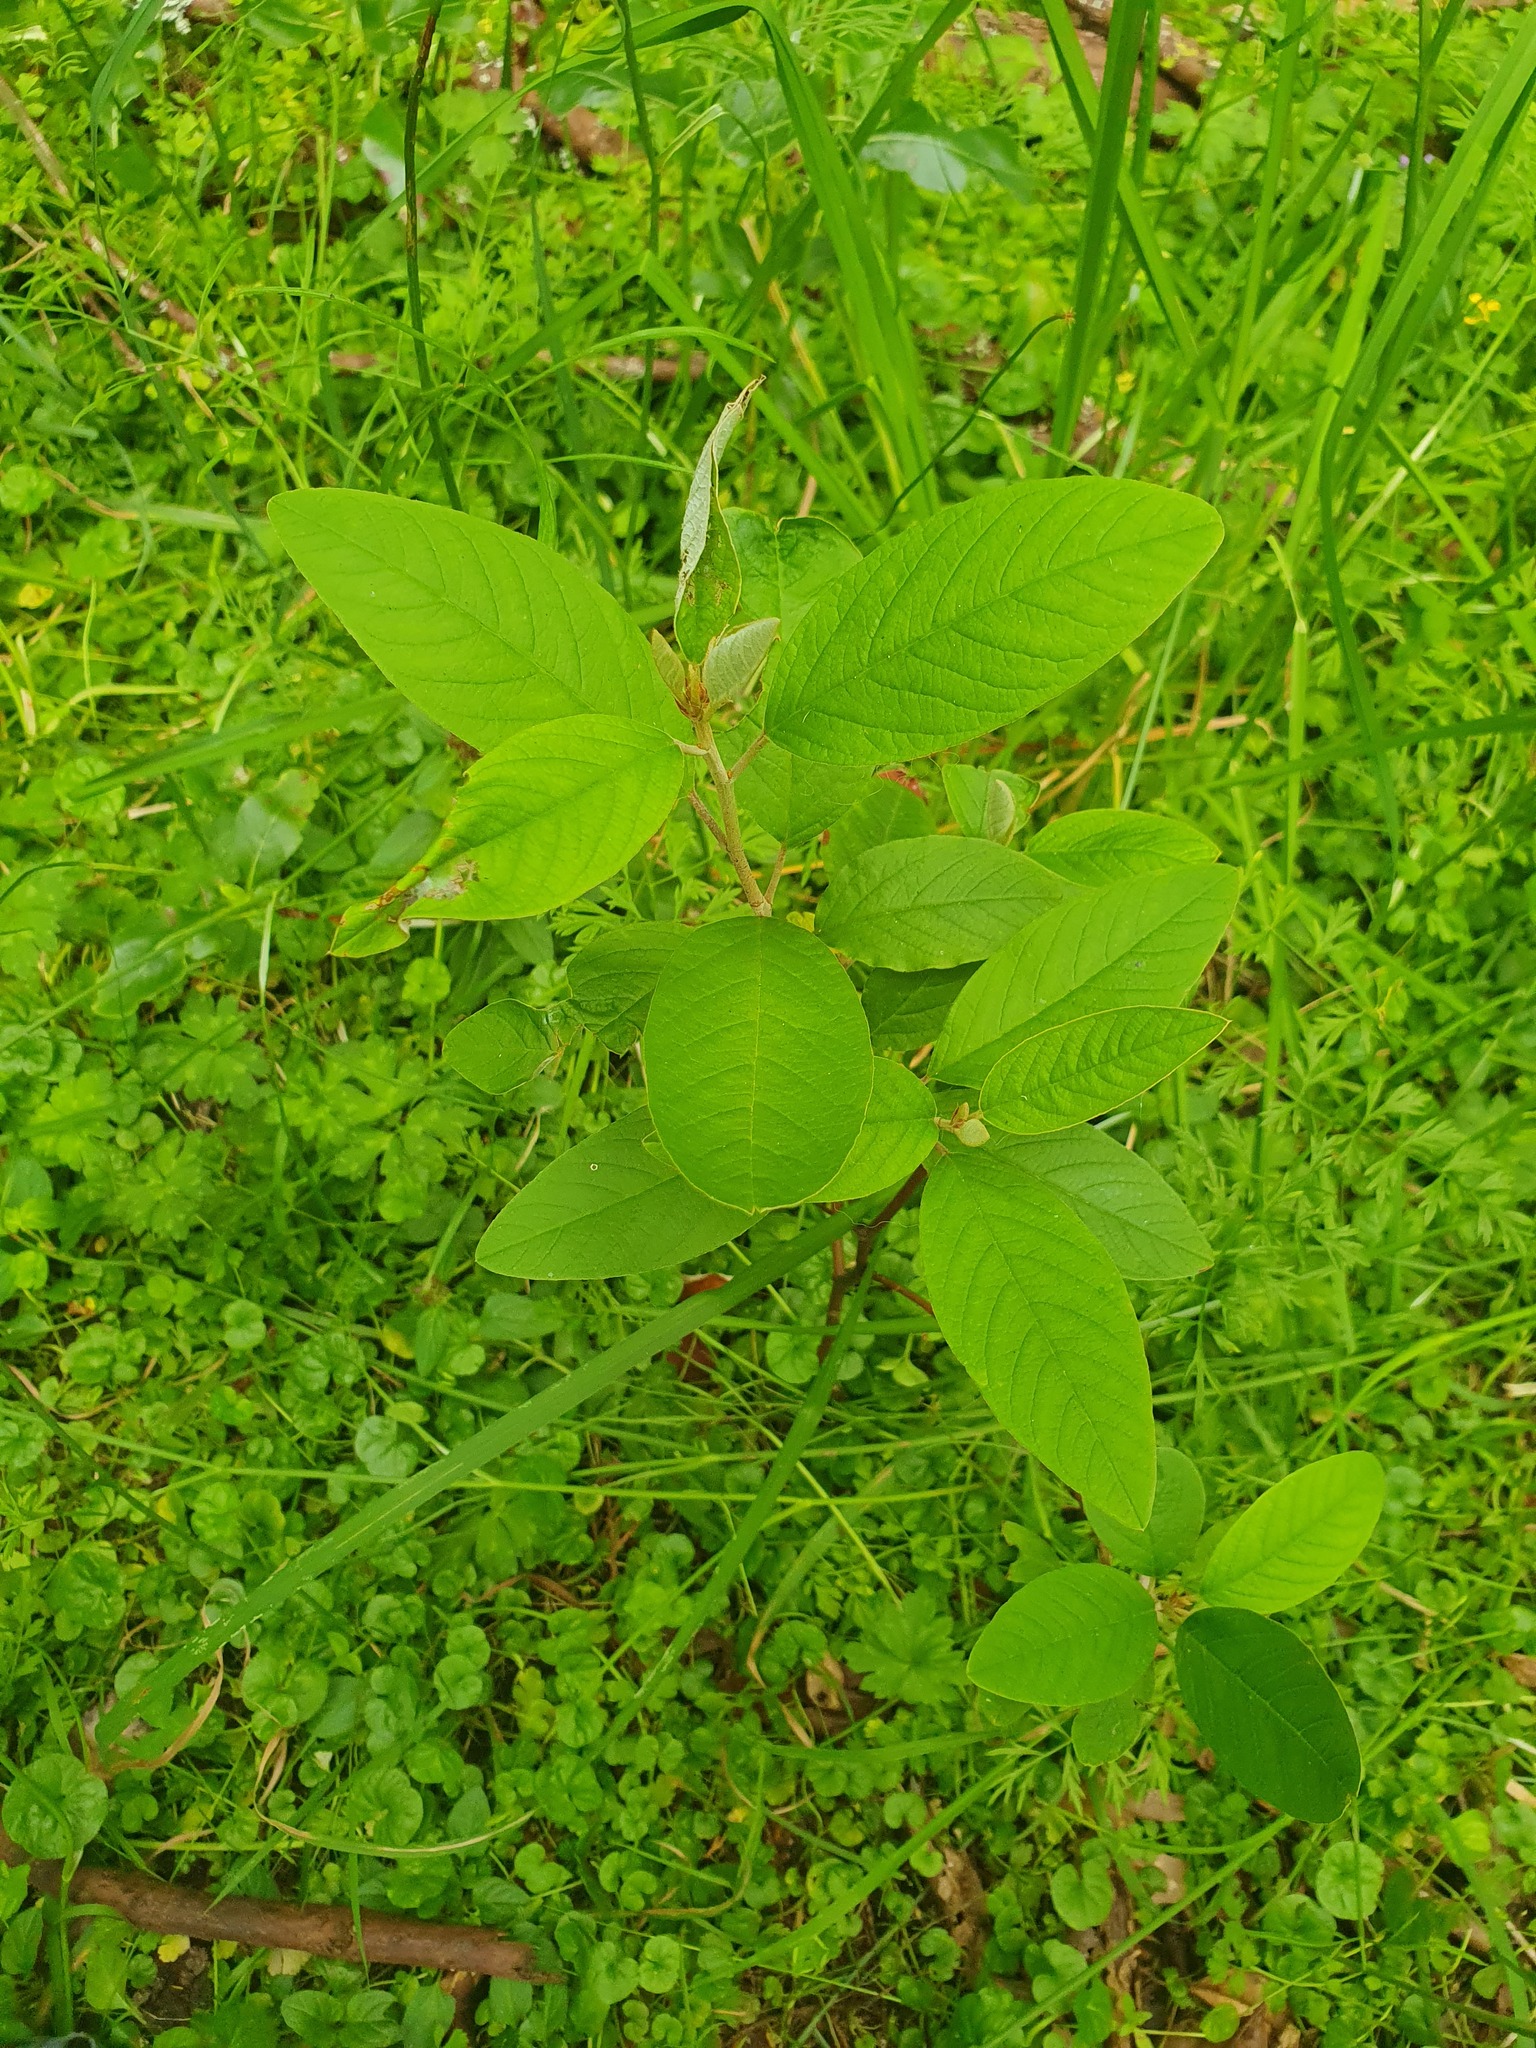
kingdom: Plantae
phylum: Tracheophyta
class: Magnoliopsida
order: Rosales
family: Rhamnaceae
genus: Pomaderris
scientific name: Pomaderris kumeraho
